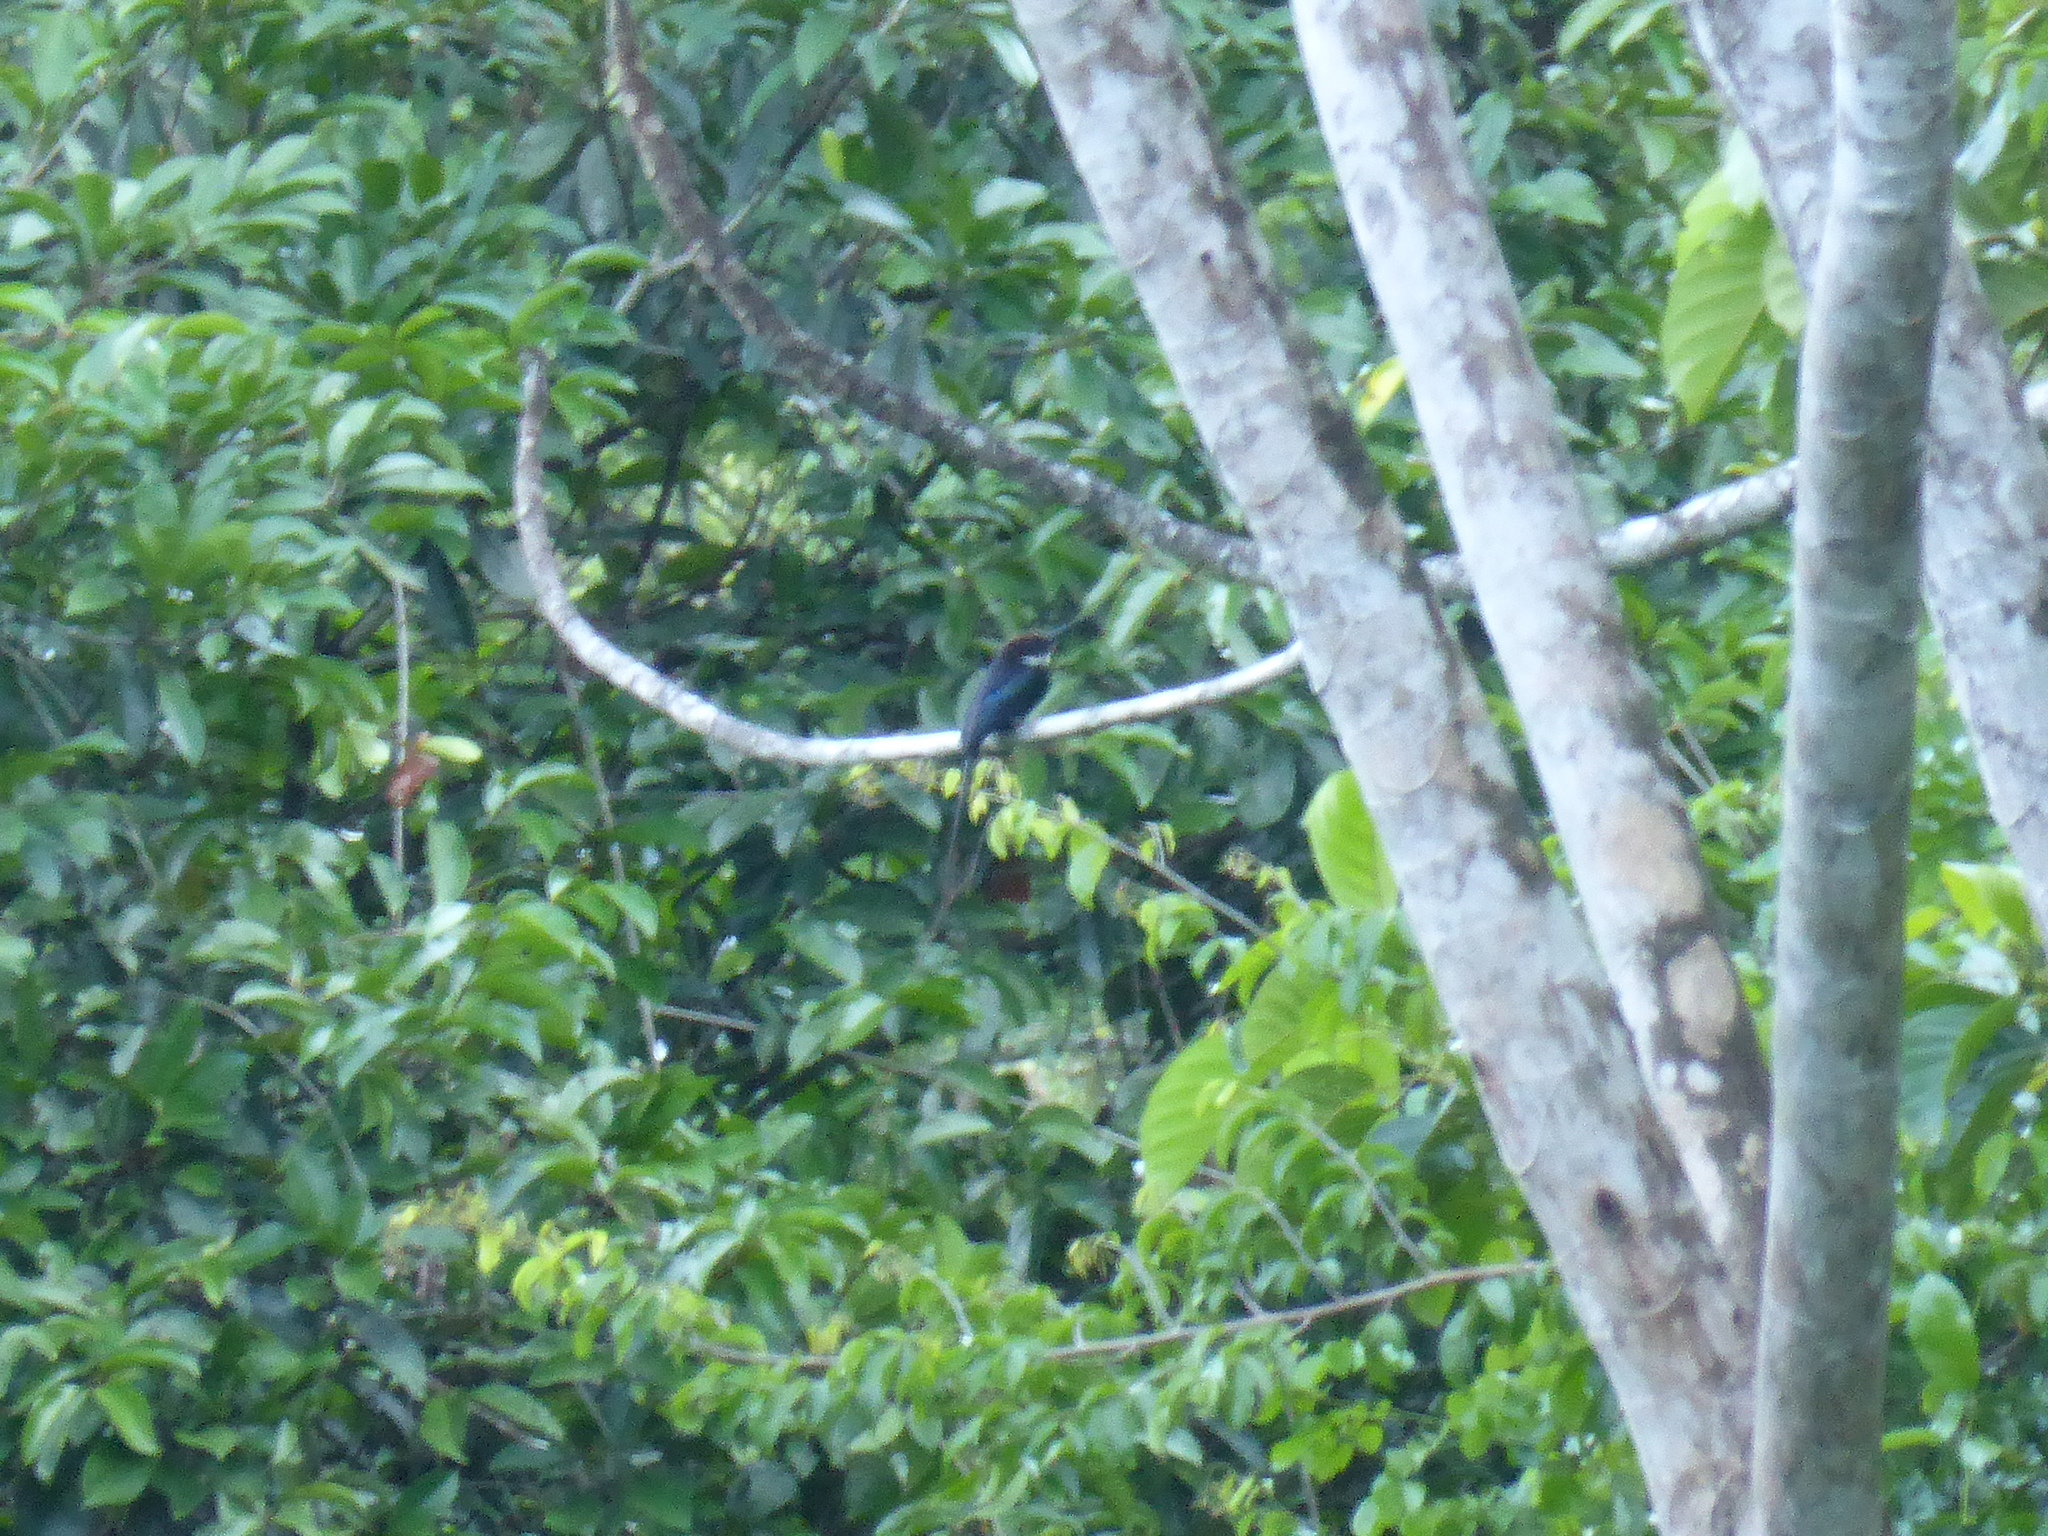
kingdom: Animalia
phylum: Chordata
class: Aves
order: Piciformes
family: Galbulidae
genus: Galbula
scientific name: Galbula dea
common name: Paradise jacamar
